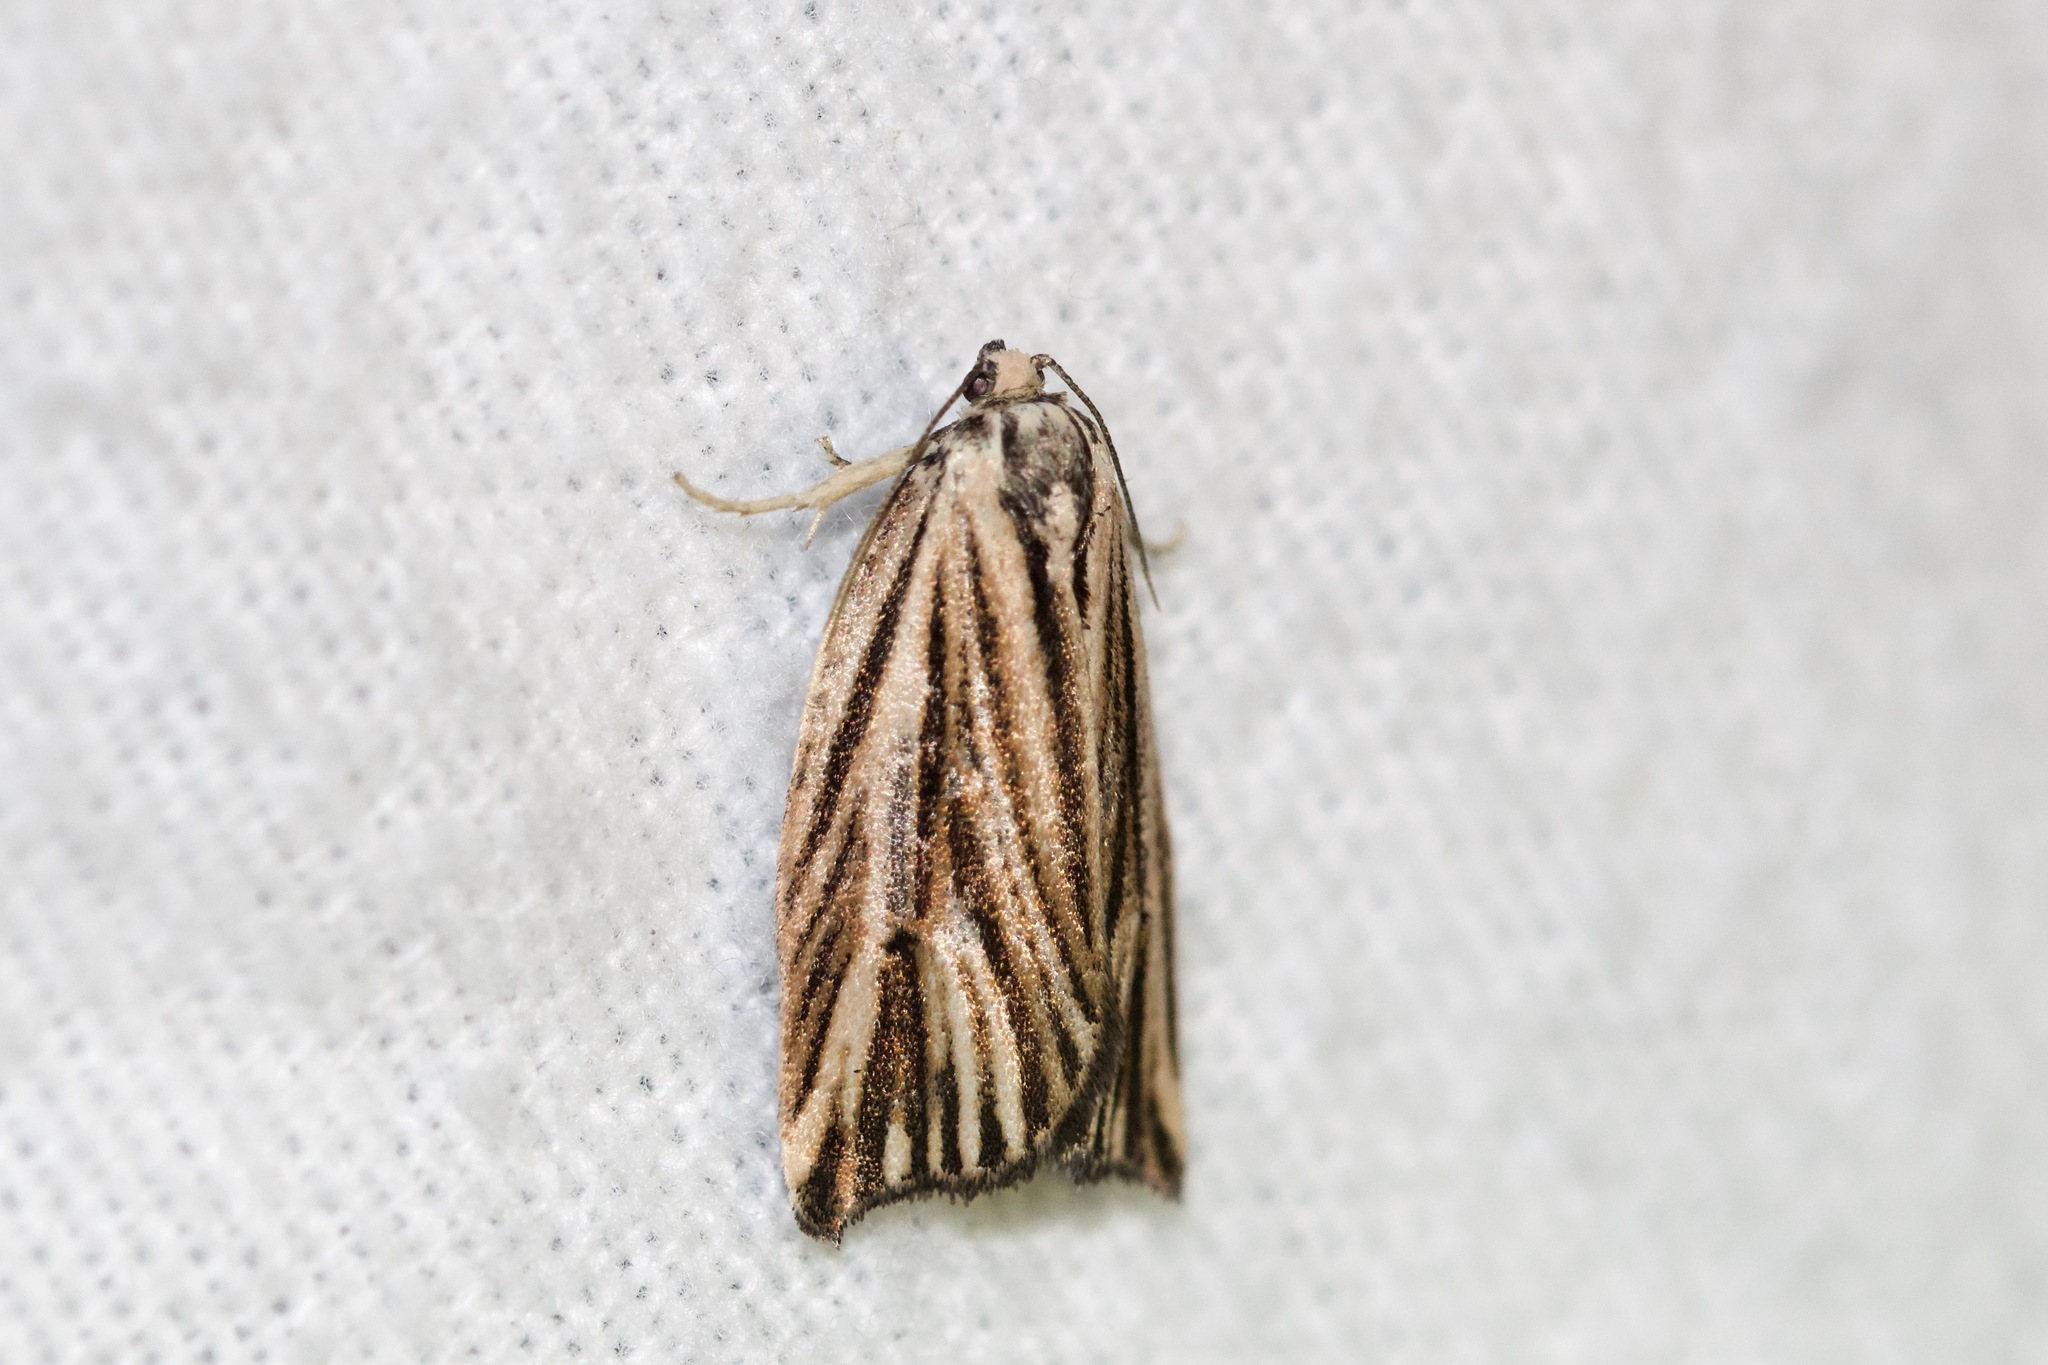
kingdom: Animalia
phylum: Arthropoda
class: Insecta
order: Lepidoptera
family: Tortricidae
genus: Archips
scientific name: Archips strianus
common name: Striated tortrix moth
